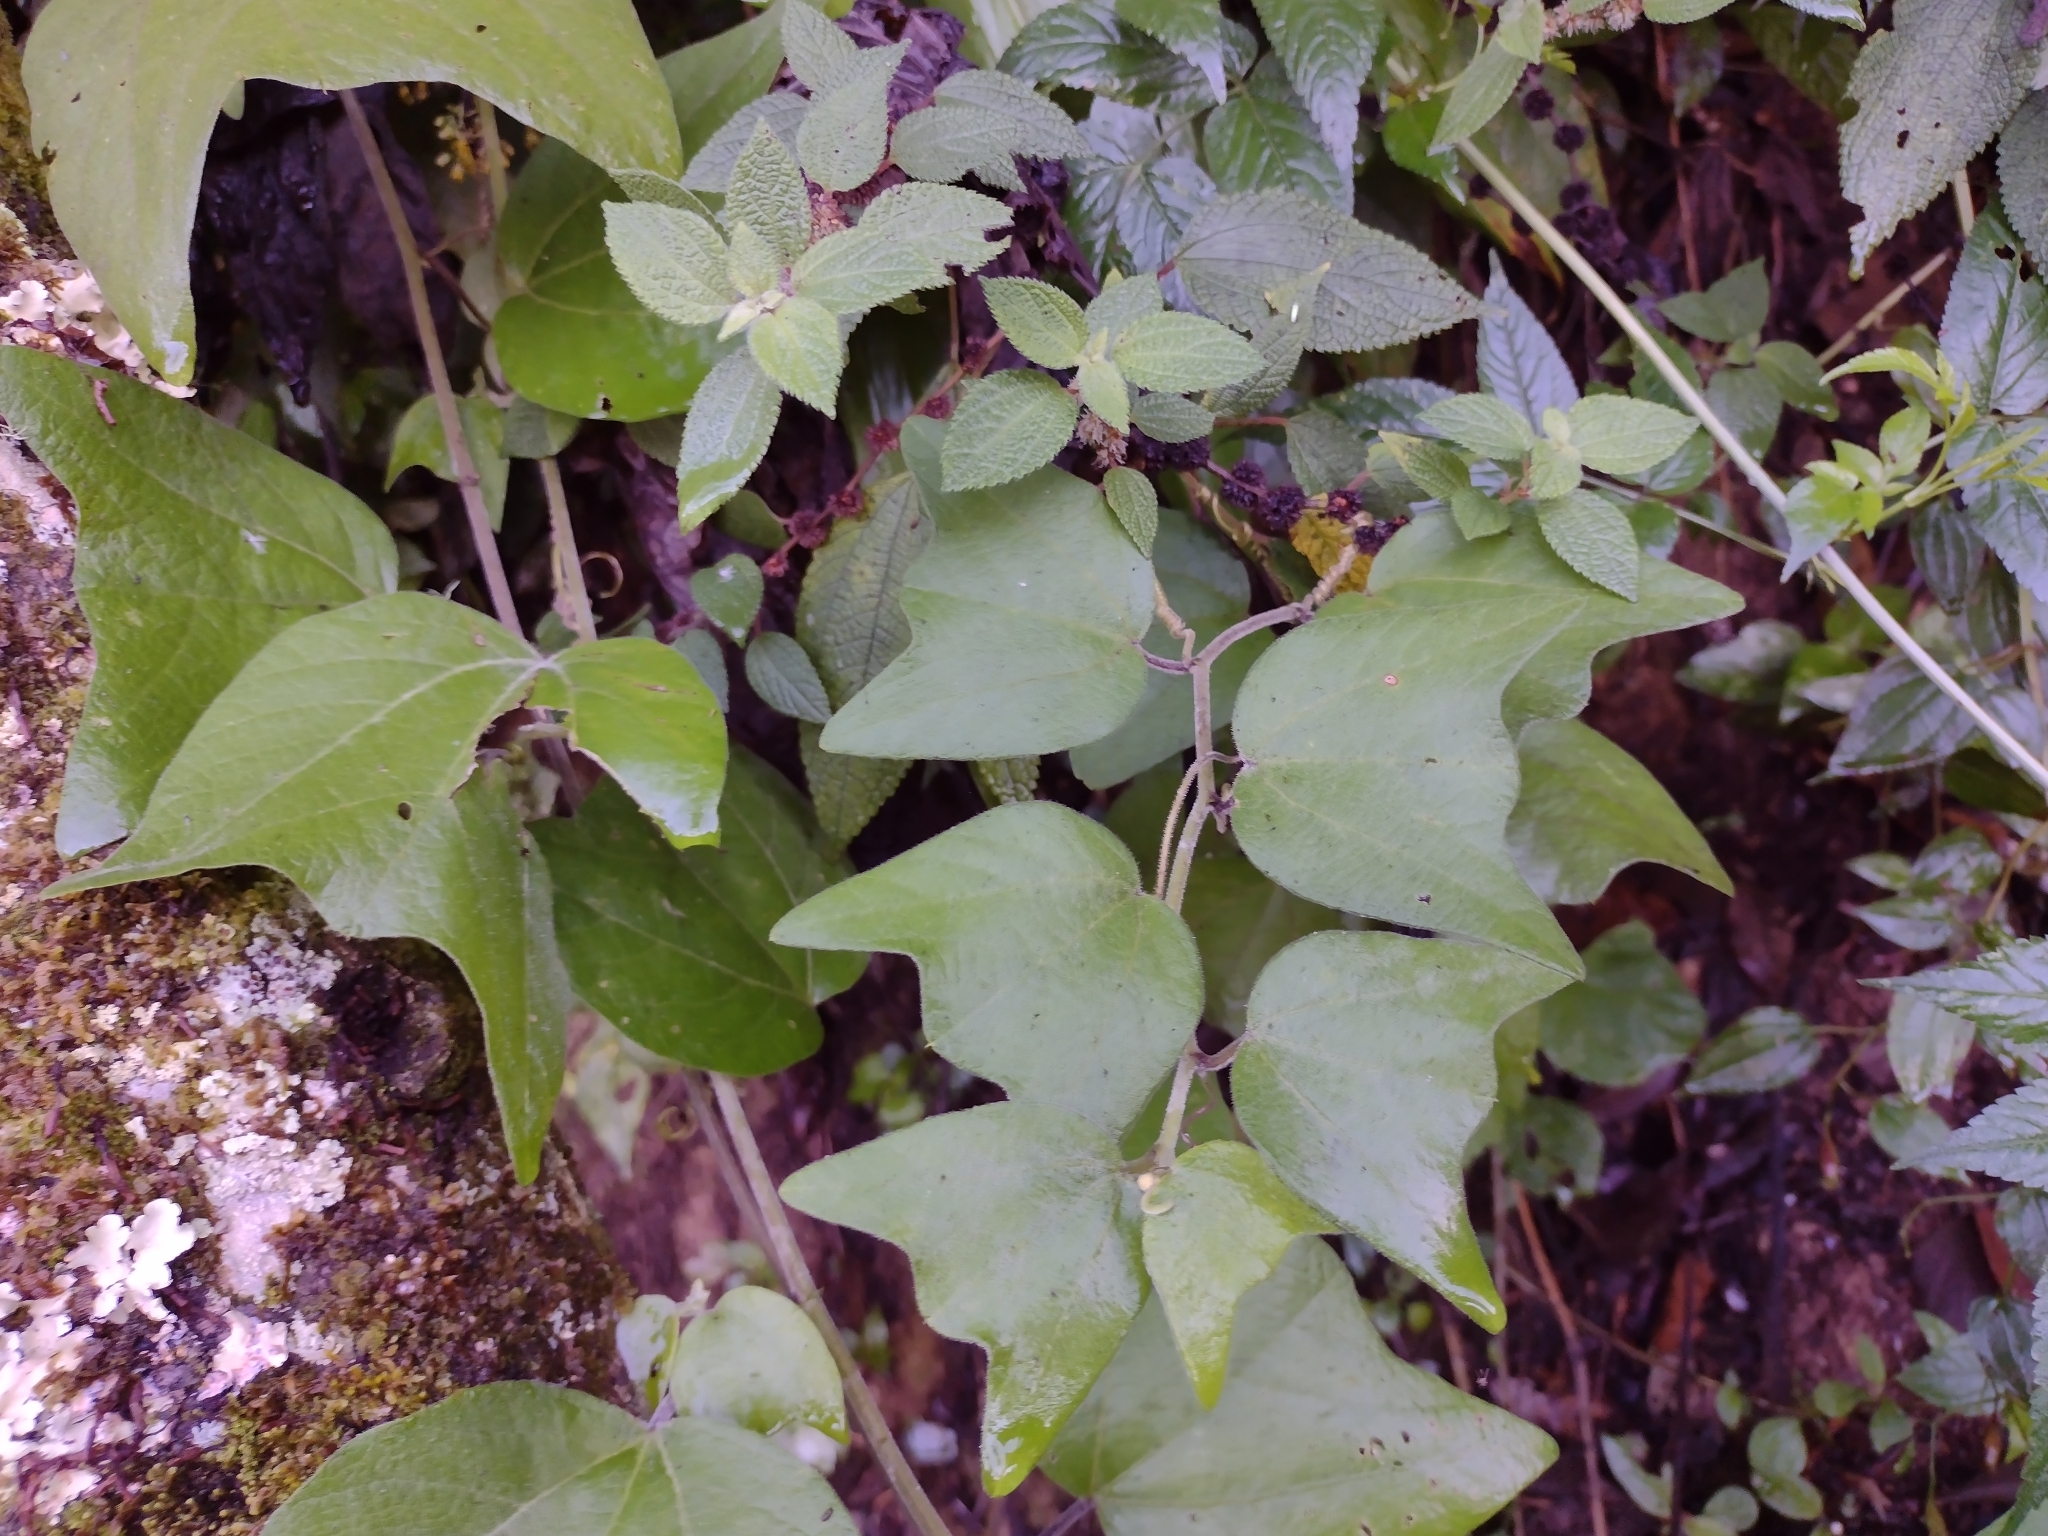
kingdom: Plantae
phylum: Tracheophyta
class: Magnoliopsida
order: Malpighiales
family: Passifloraceae
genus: Passiflora
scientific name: Passiflora sexflora
